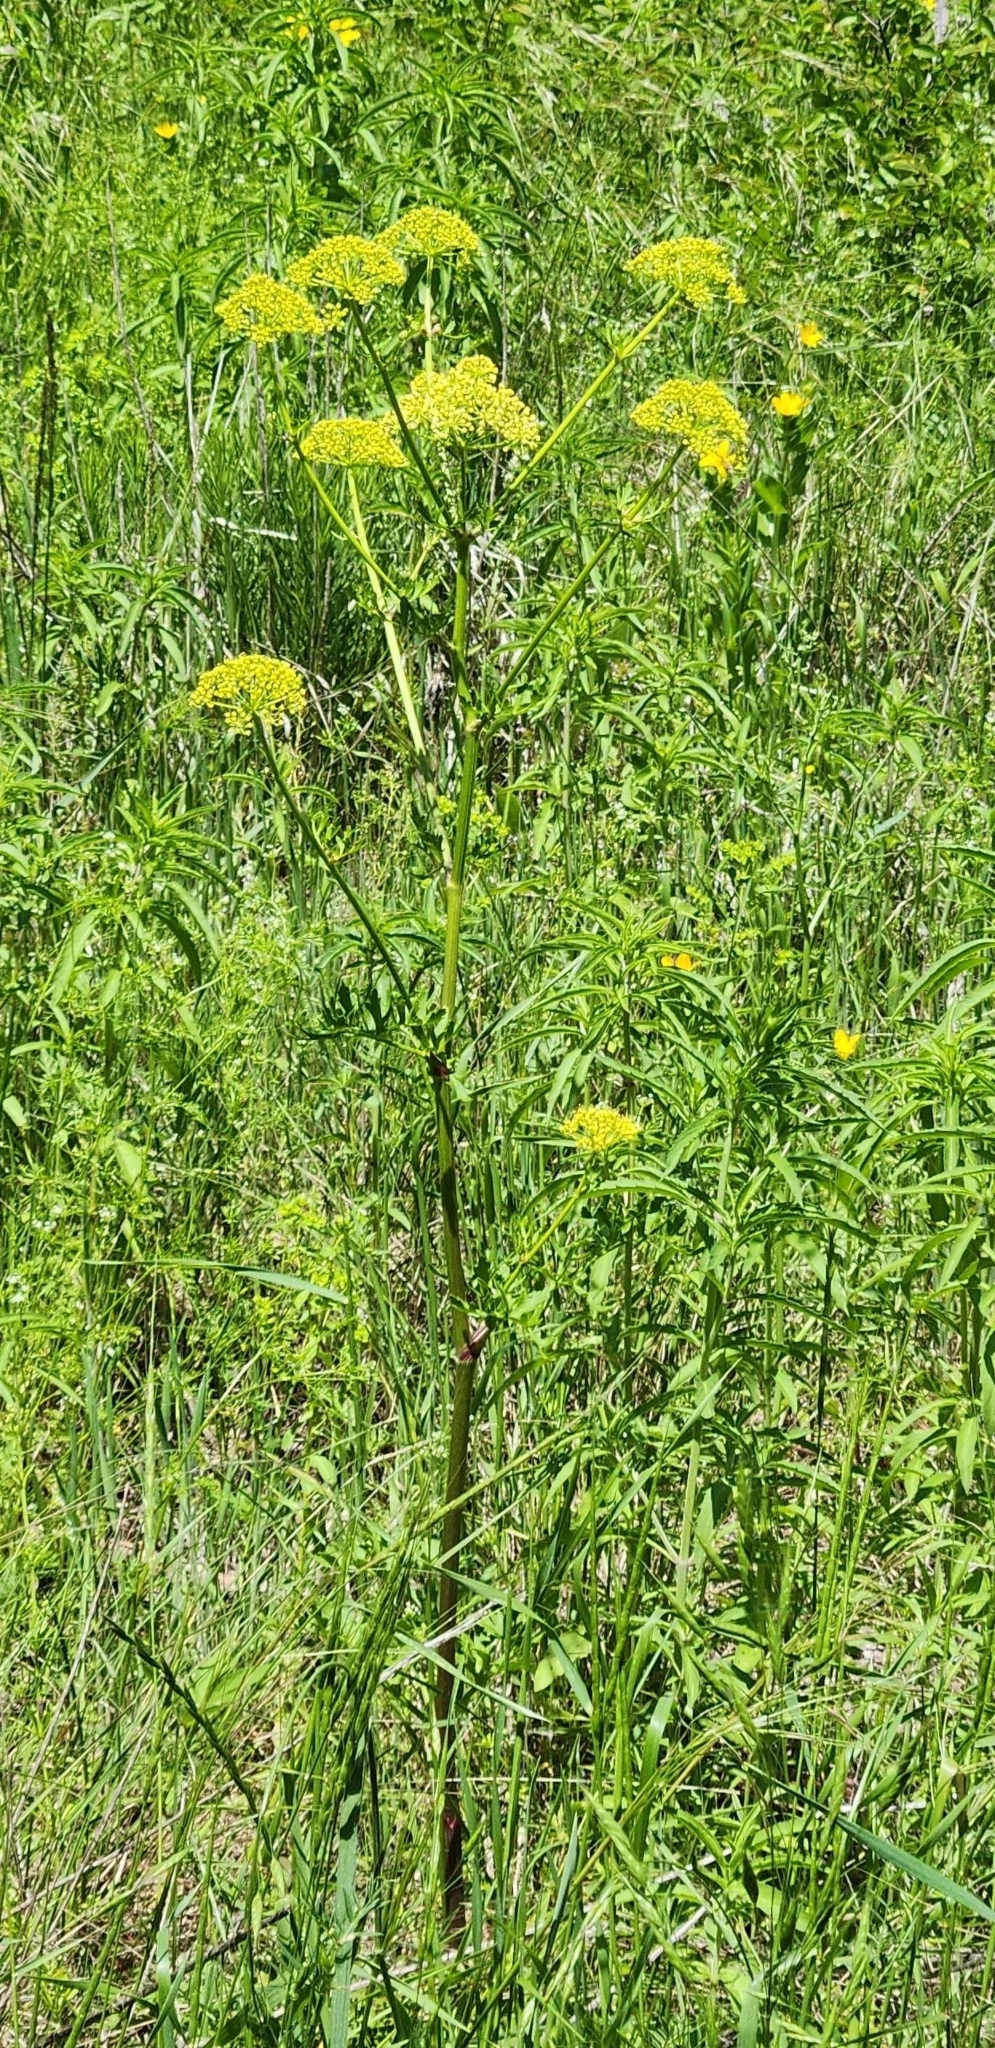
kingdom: Plantae
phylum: Tracheophyta
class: Magnoliopsida
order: Apiales
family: Apiaceae
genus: Polytaenia
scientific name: Polytaenia texana
